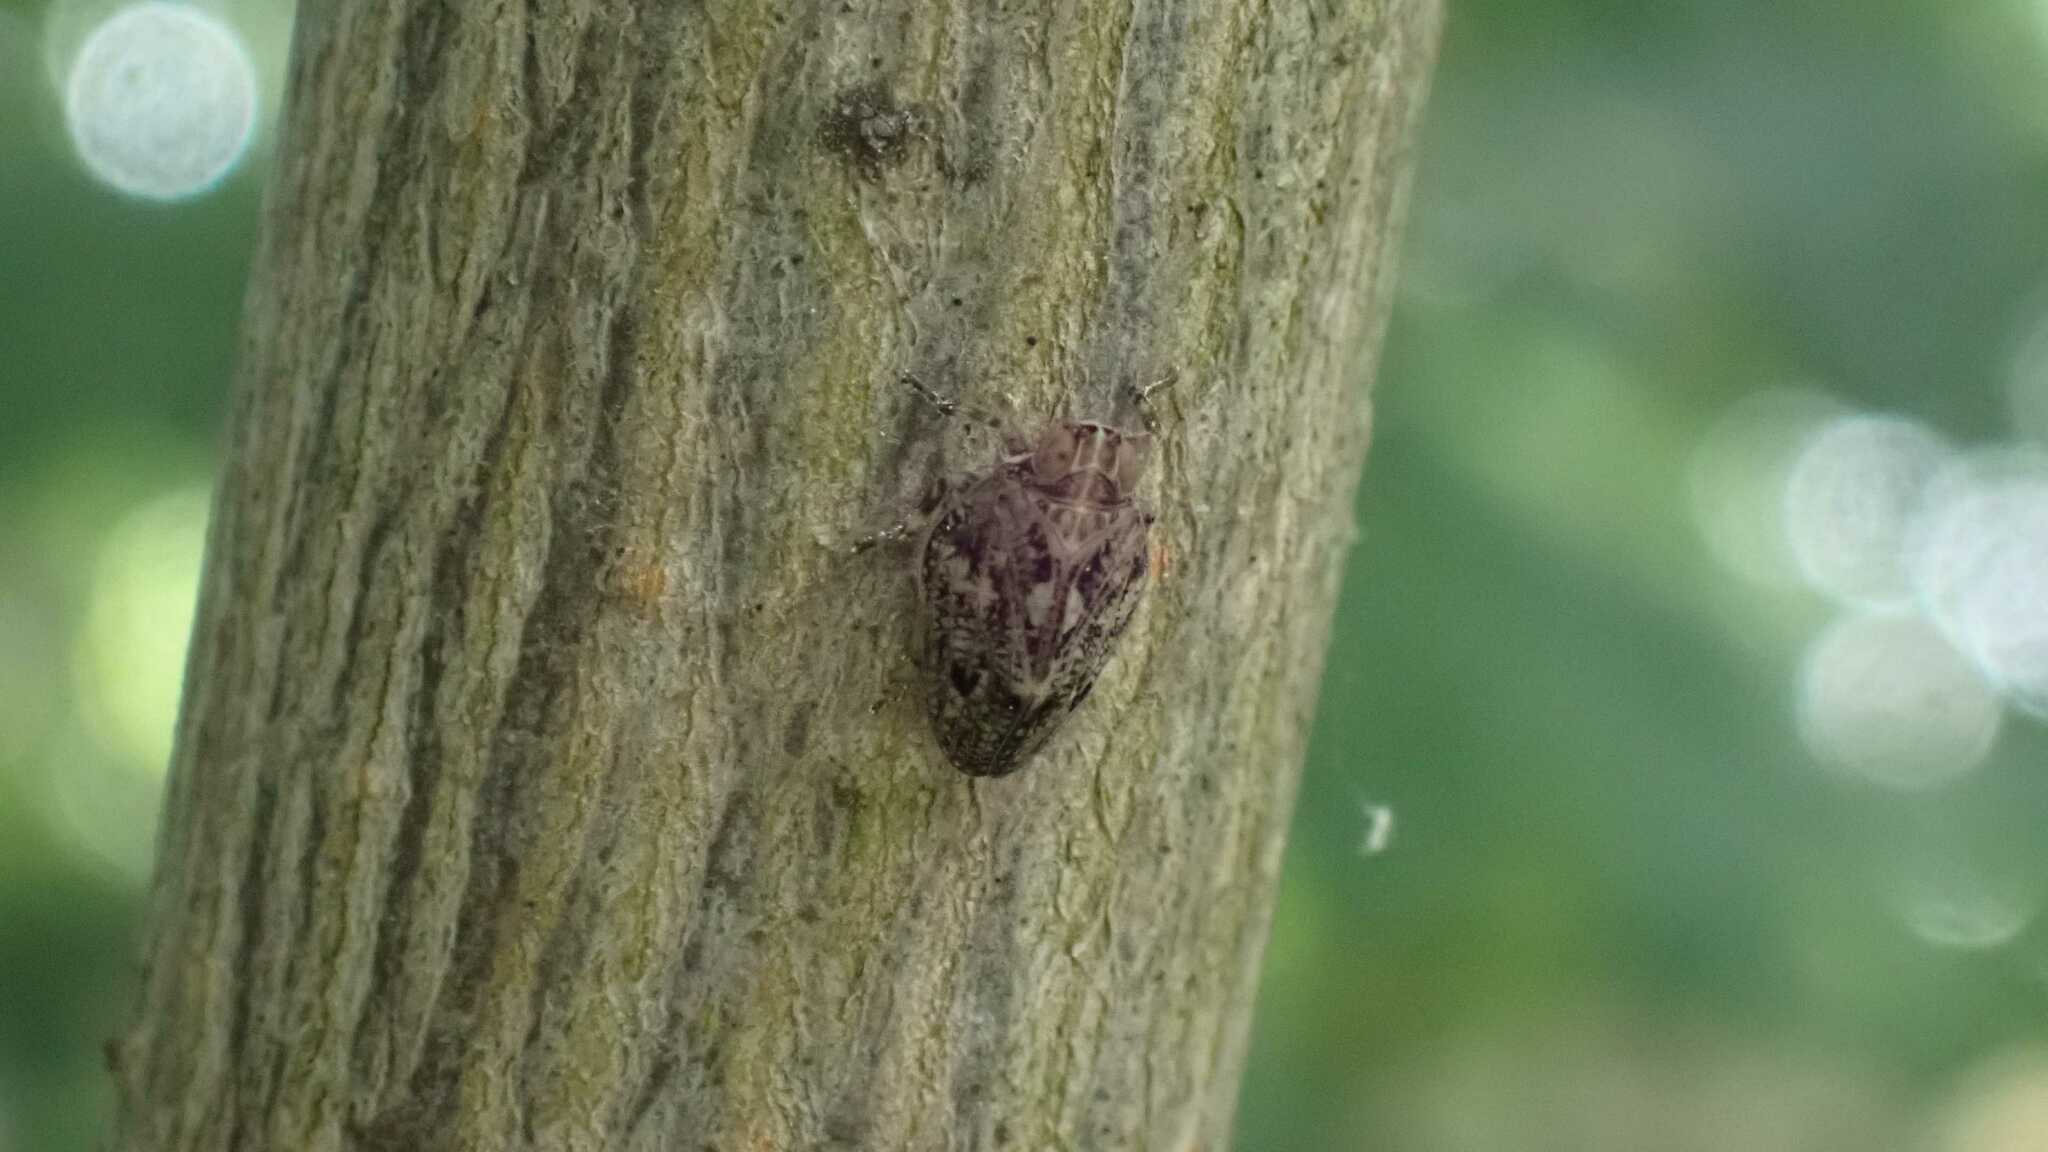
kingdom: Animalia
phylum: Arthropoda
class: Insecta
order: Hemiptera
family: Issidae
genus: Issus
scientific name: Issus coleoptratus
